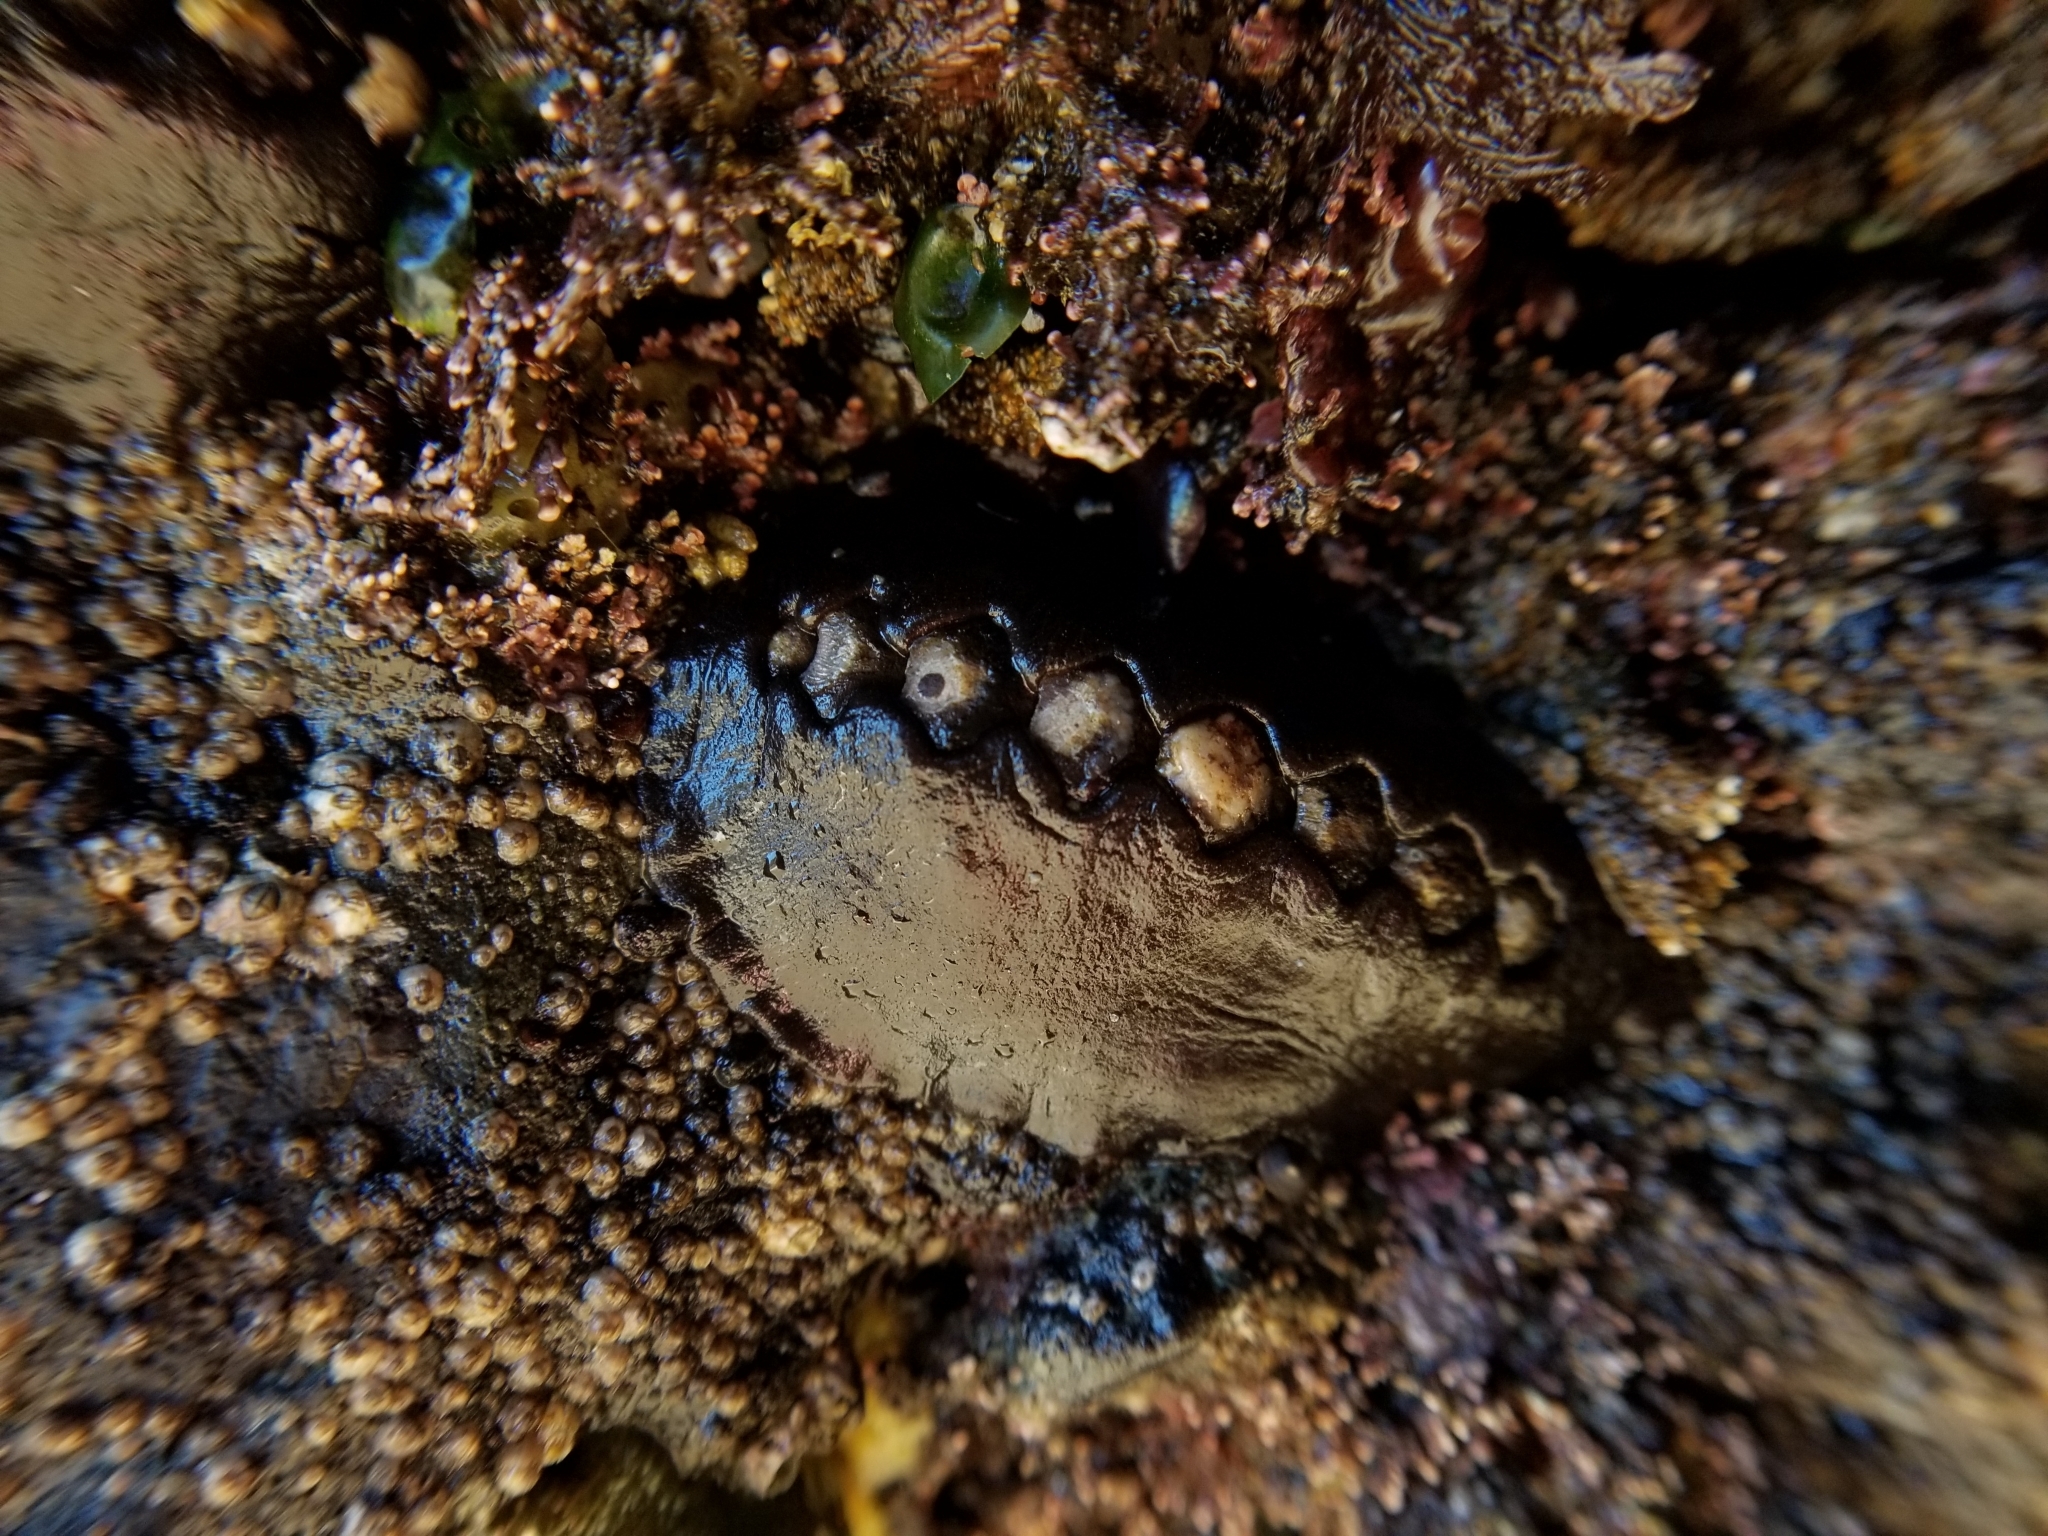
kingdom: Animalia
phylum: Mollusca
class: Polyplacophora
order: Chitonida
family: Mopaliidae
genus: Katharina
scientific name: Katharina tunicata
